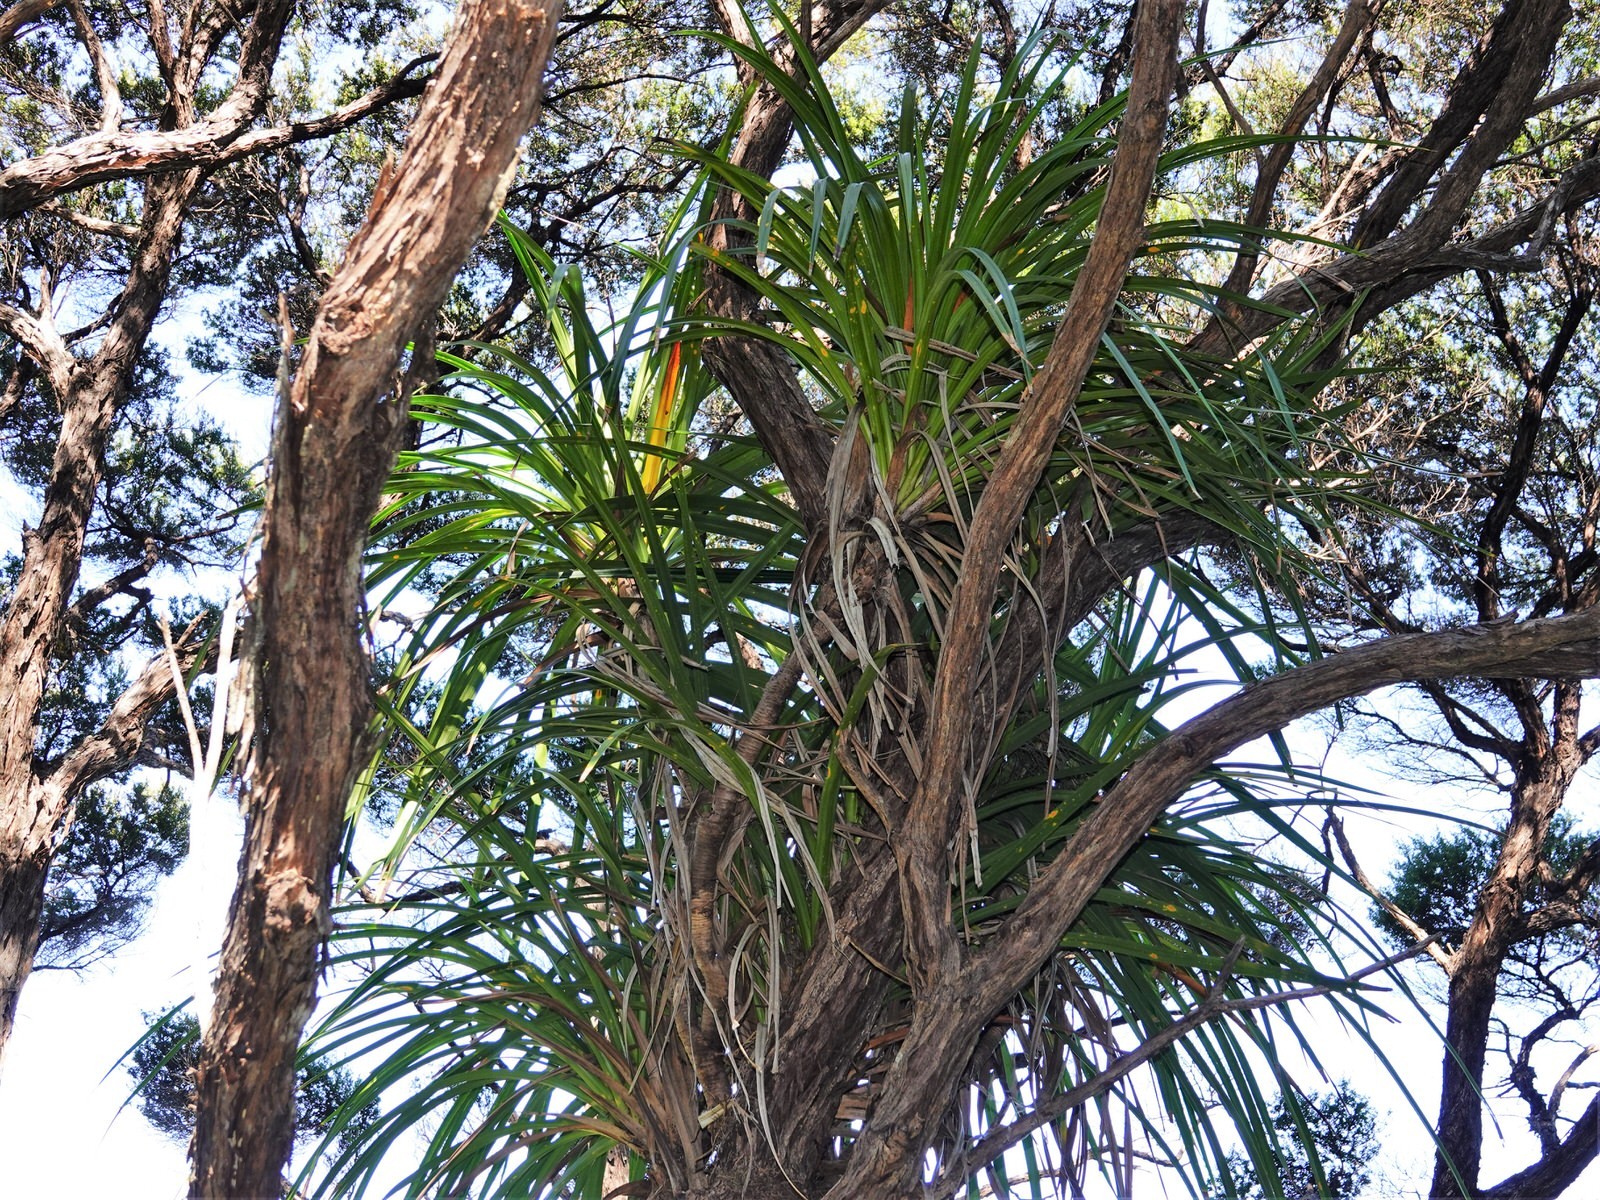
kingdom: Plantae
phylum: Tracheophyta
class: Liliopsida
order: Pandanales
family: Pandanaceae
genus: Freycinetia
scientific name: Freycinetia banksii
